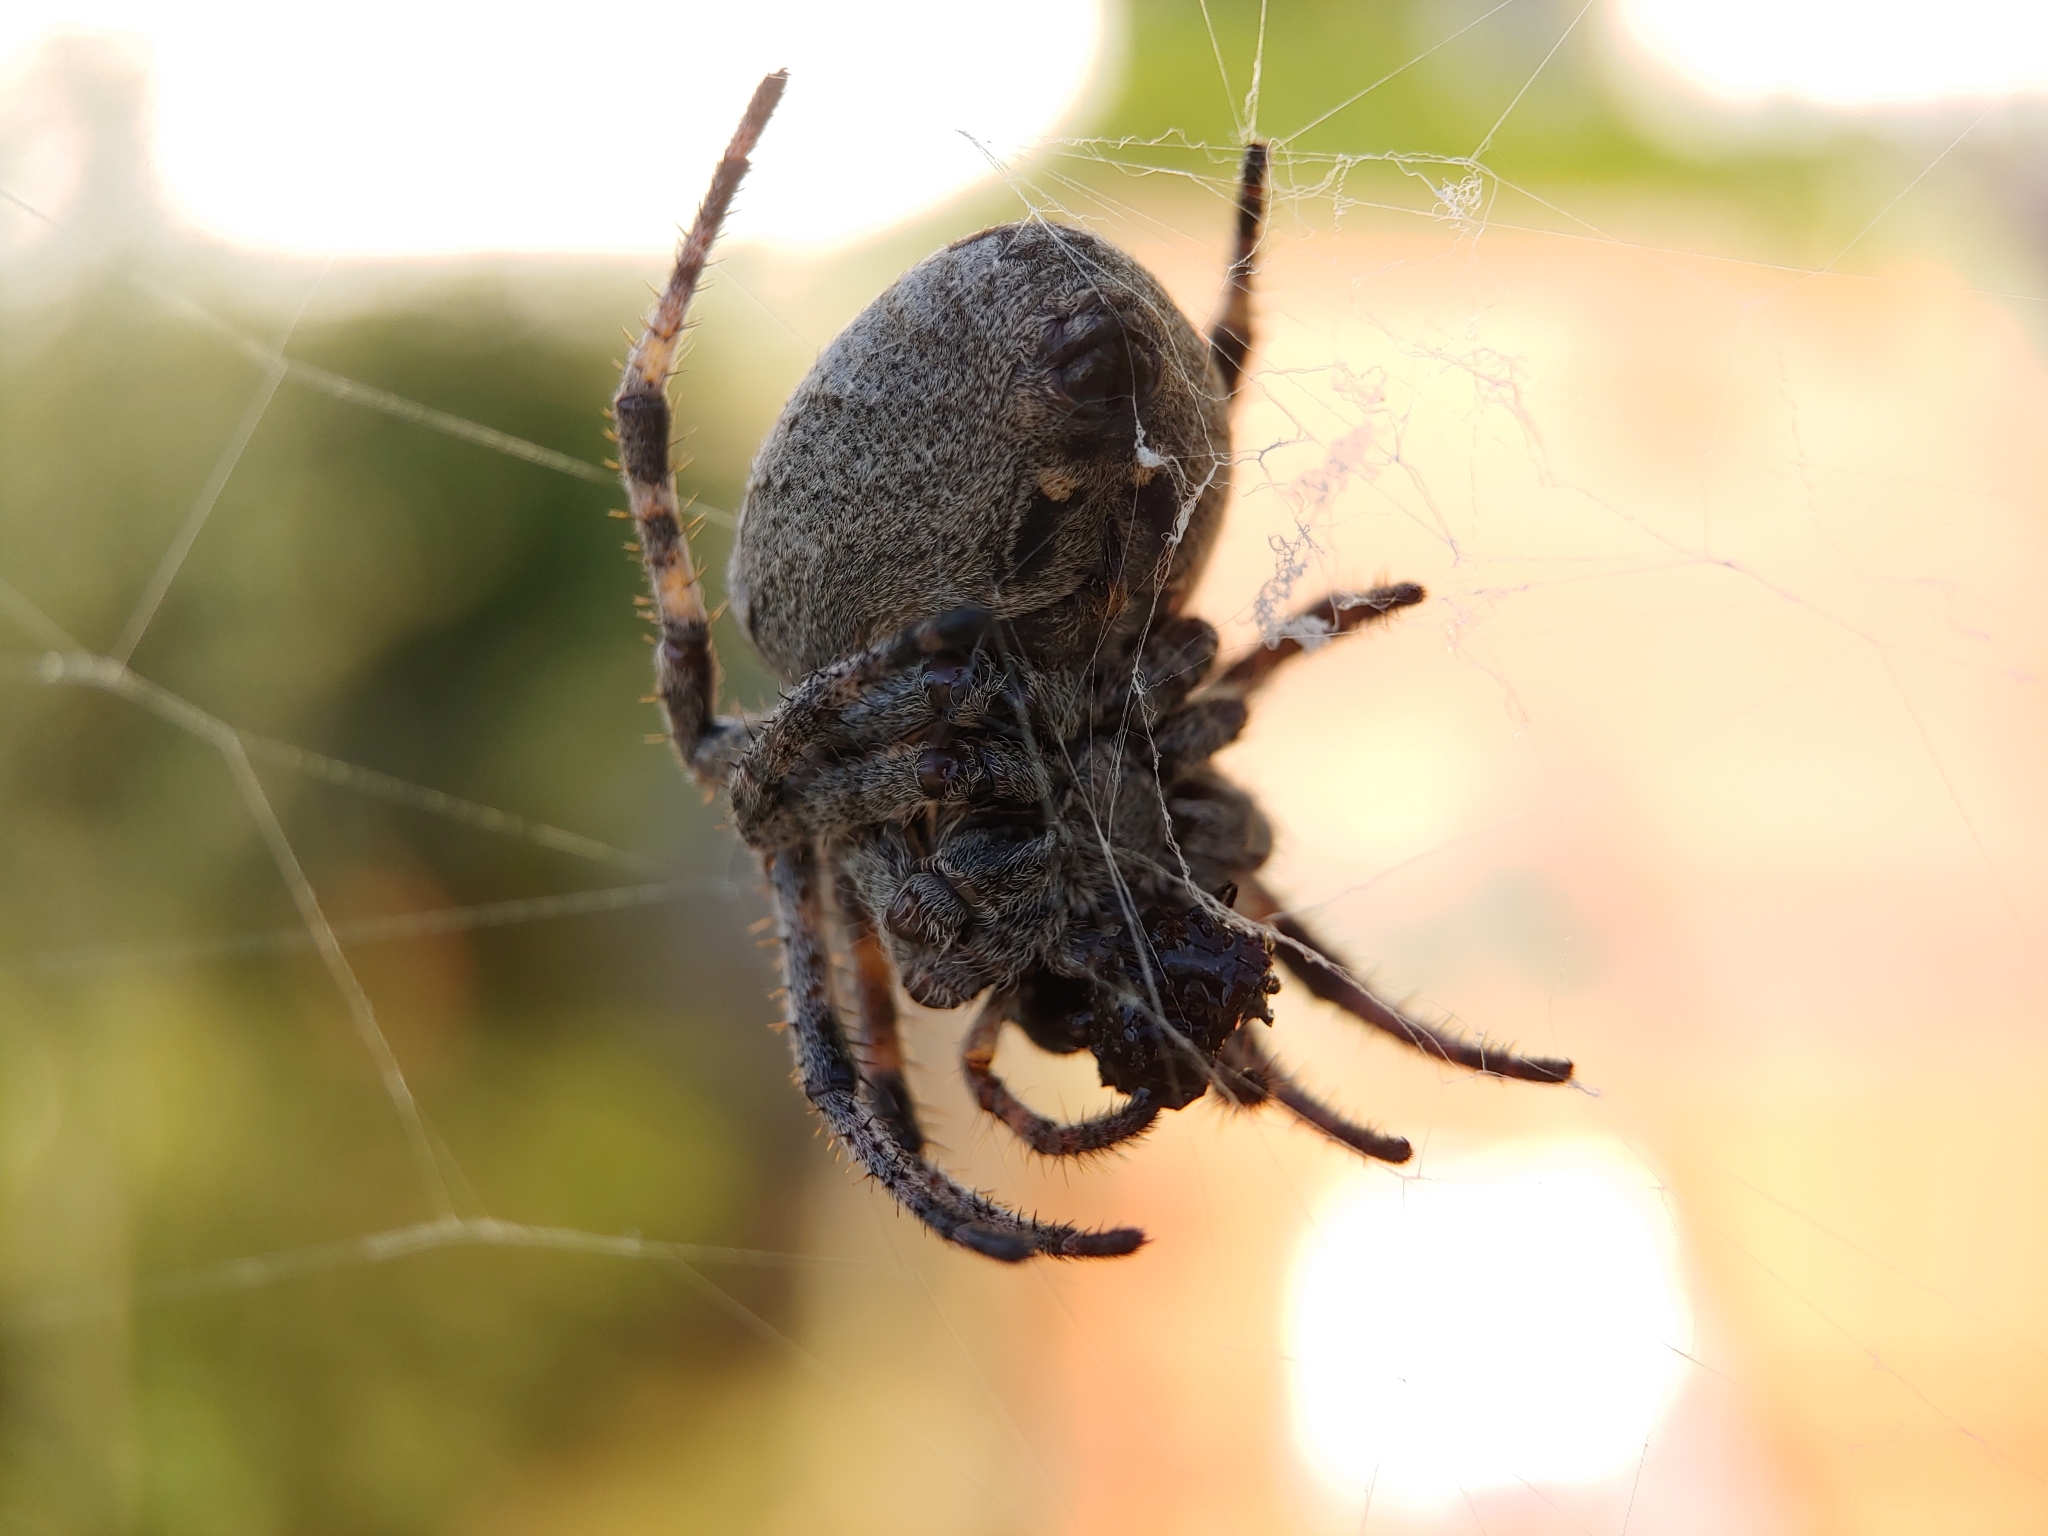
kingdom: Animalia
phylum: Arthropoda
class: Arachnida
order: Araneae
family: Araneidae
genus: Araneus
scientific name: Araneus angulatus
